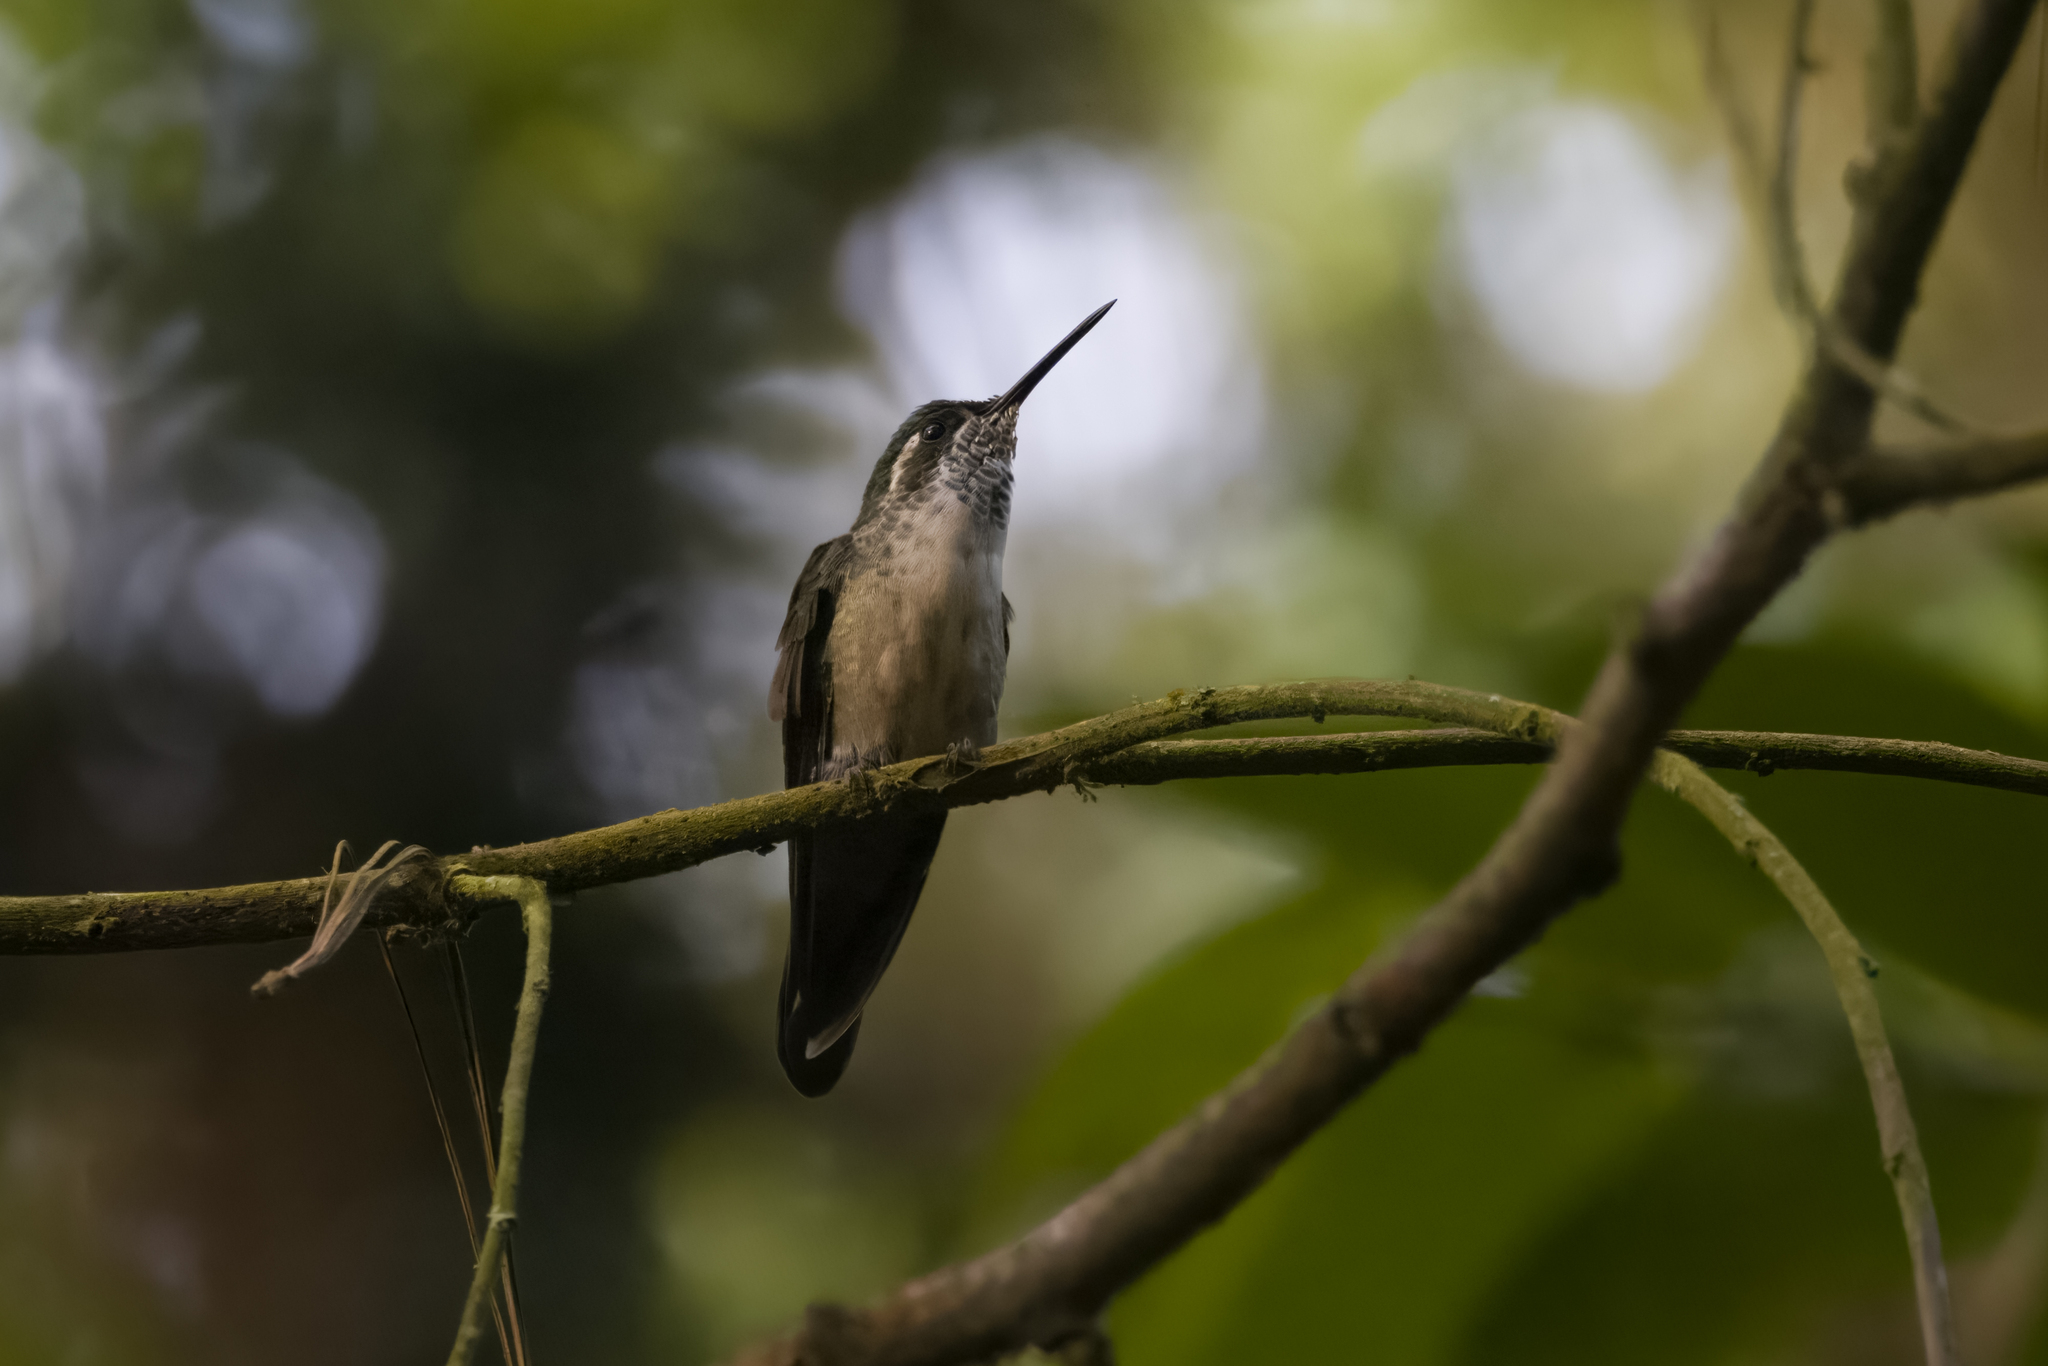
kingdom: Animalia
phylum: Chordata
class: Aves
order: Apodiformes
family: Trochilidae
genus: Lampornis
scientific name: Lampornis viridipallens
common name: Green-throated mountain-gem
